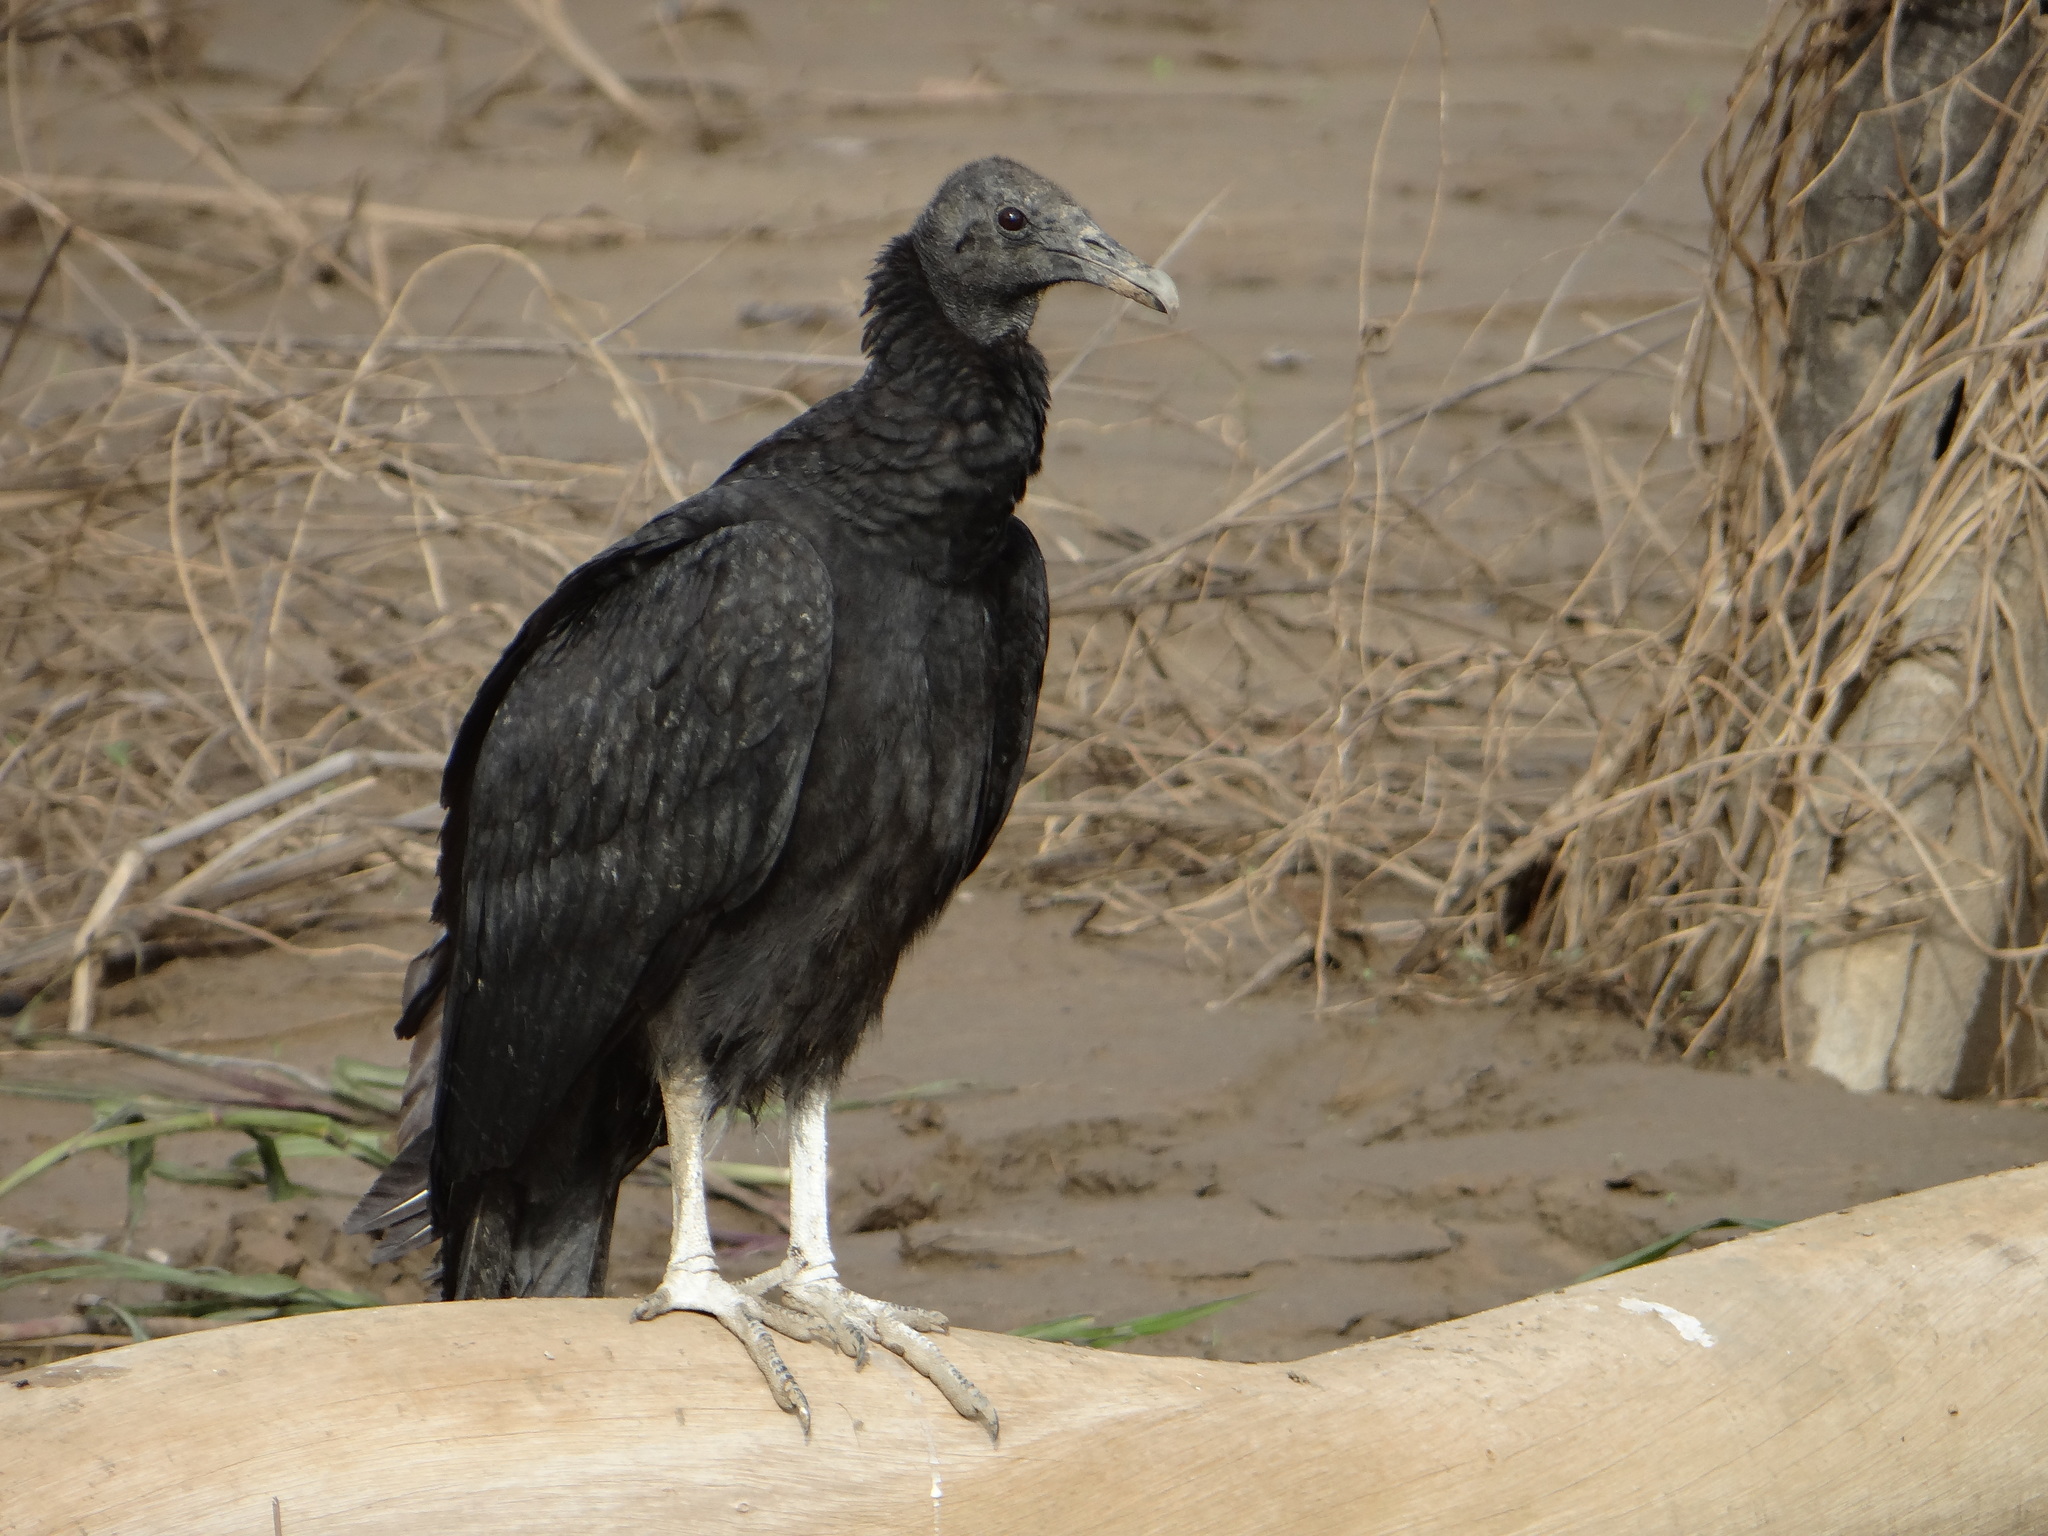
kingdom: Animalia
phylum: Chordata
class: Aves
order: Accipitriformes
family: Cathartidae
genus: Coragyps
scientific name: Coragyps atratus
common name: Black vulture
